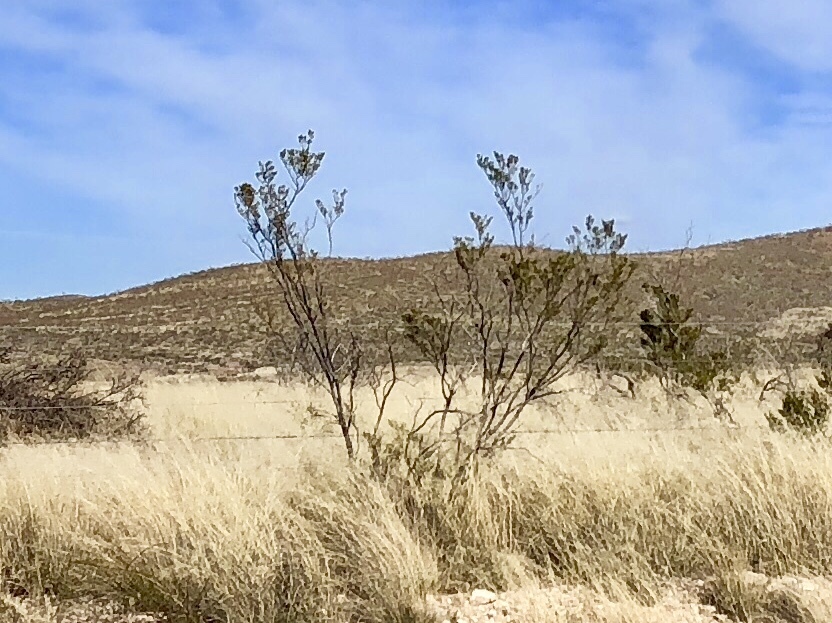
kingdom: Plantae
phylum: Tracheophyta
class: Magnoliopsida
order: Zygophyllales
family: Zygophyllaceae
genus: Larrea
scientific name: Larrea tridentata
